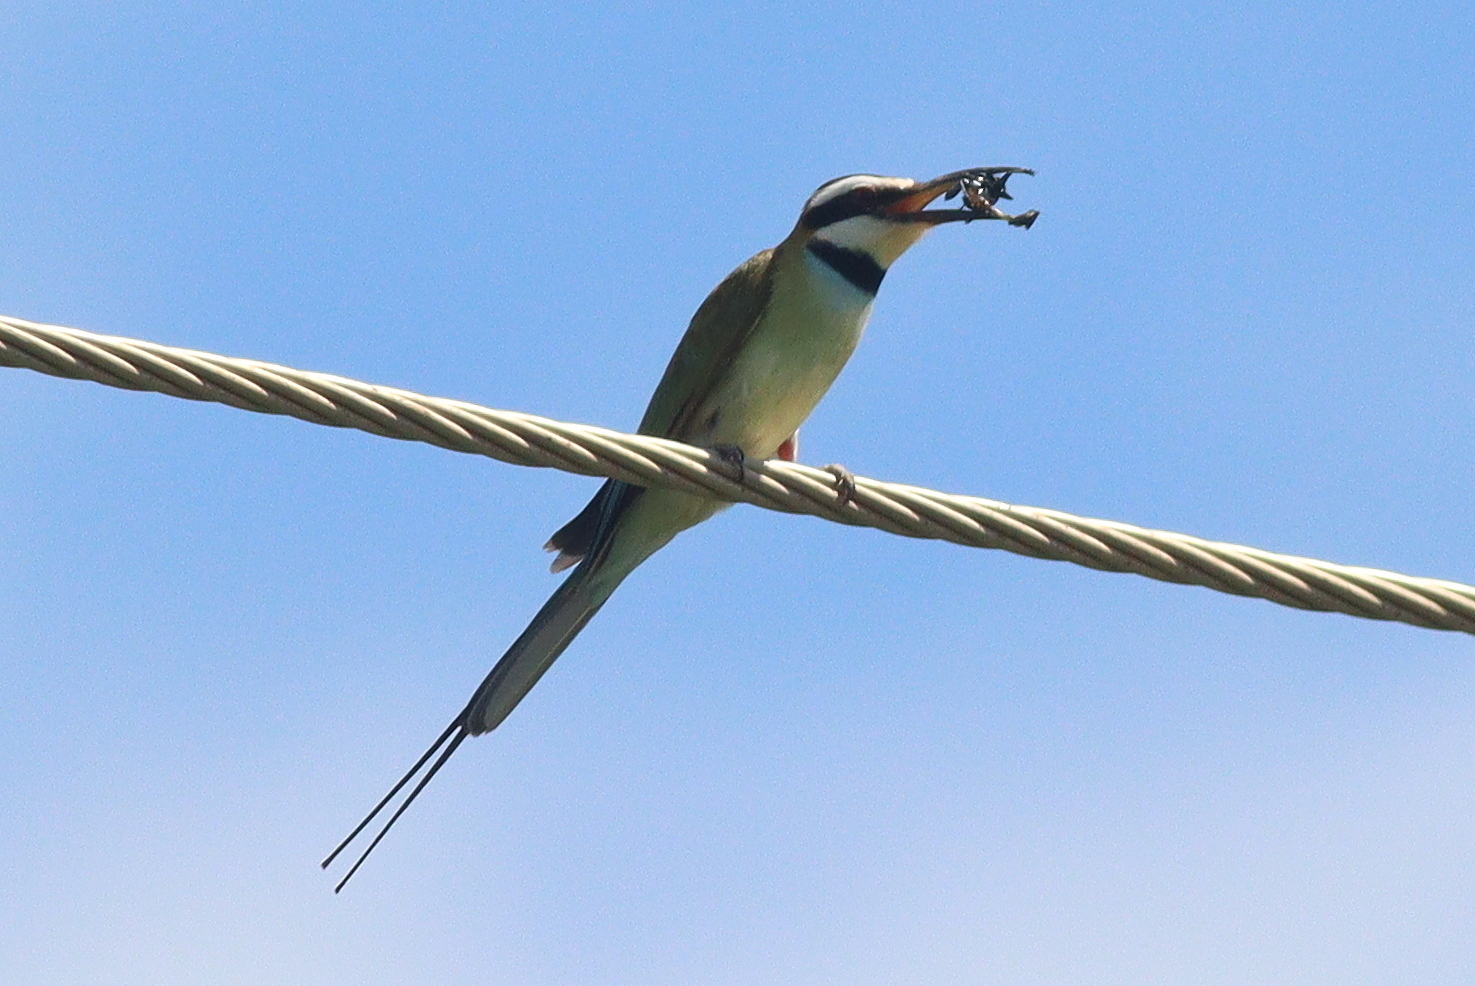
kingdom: Animalia
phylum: Chordata
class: Aves
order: Coraciiformes
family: Meropidae
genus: Merops
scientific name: Merops albicollis
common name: White-throated bee-eater
